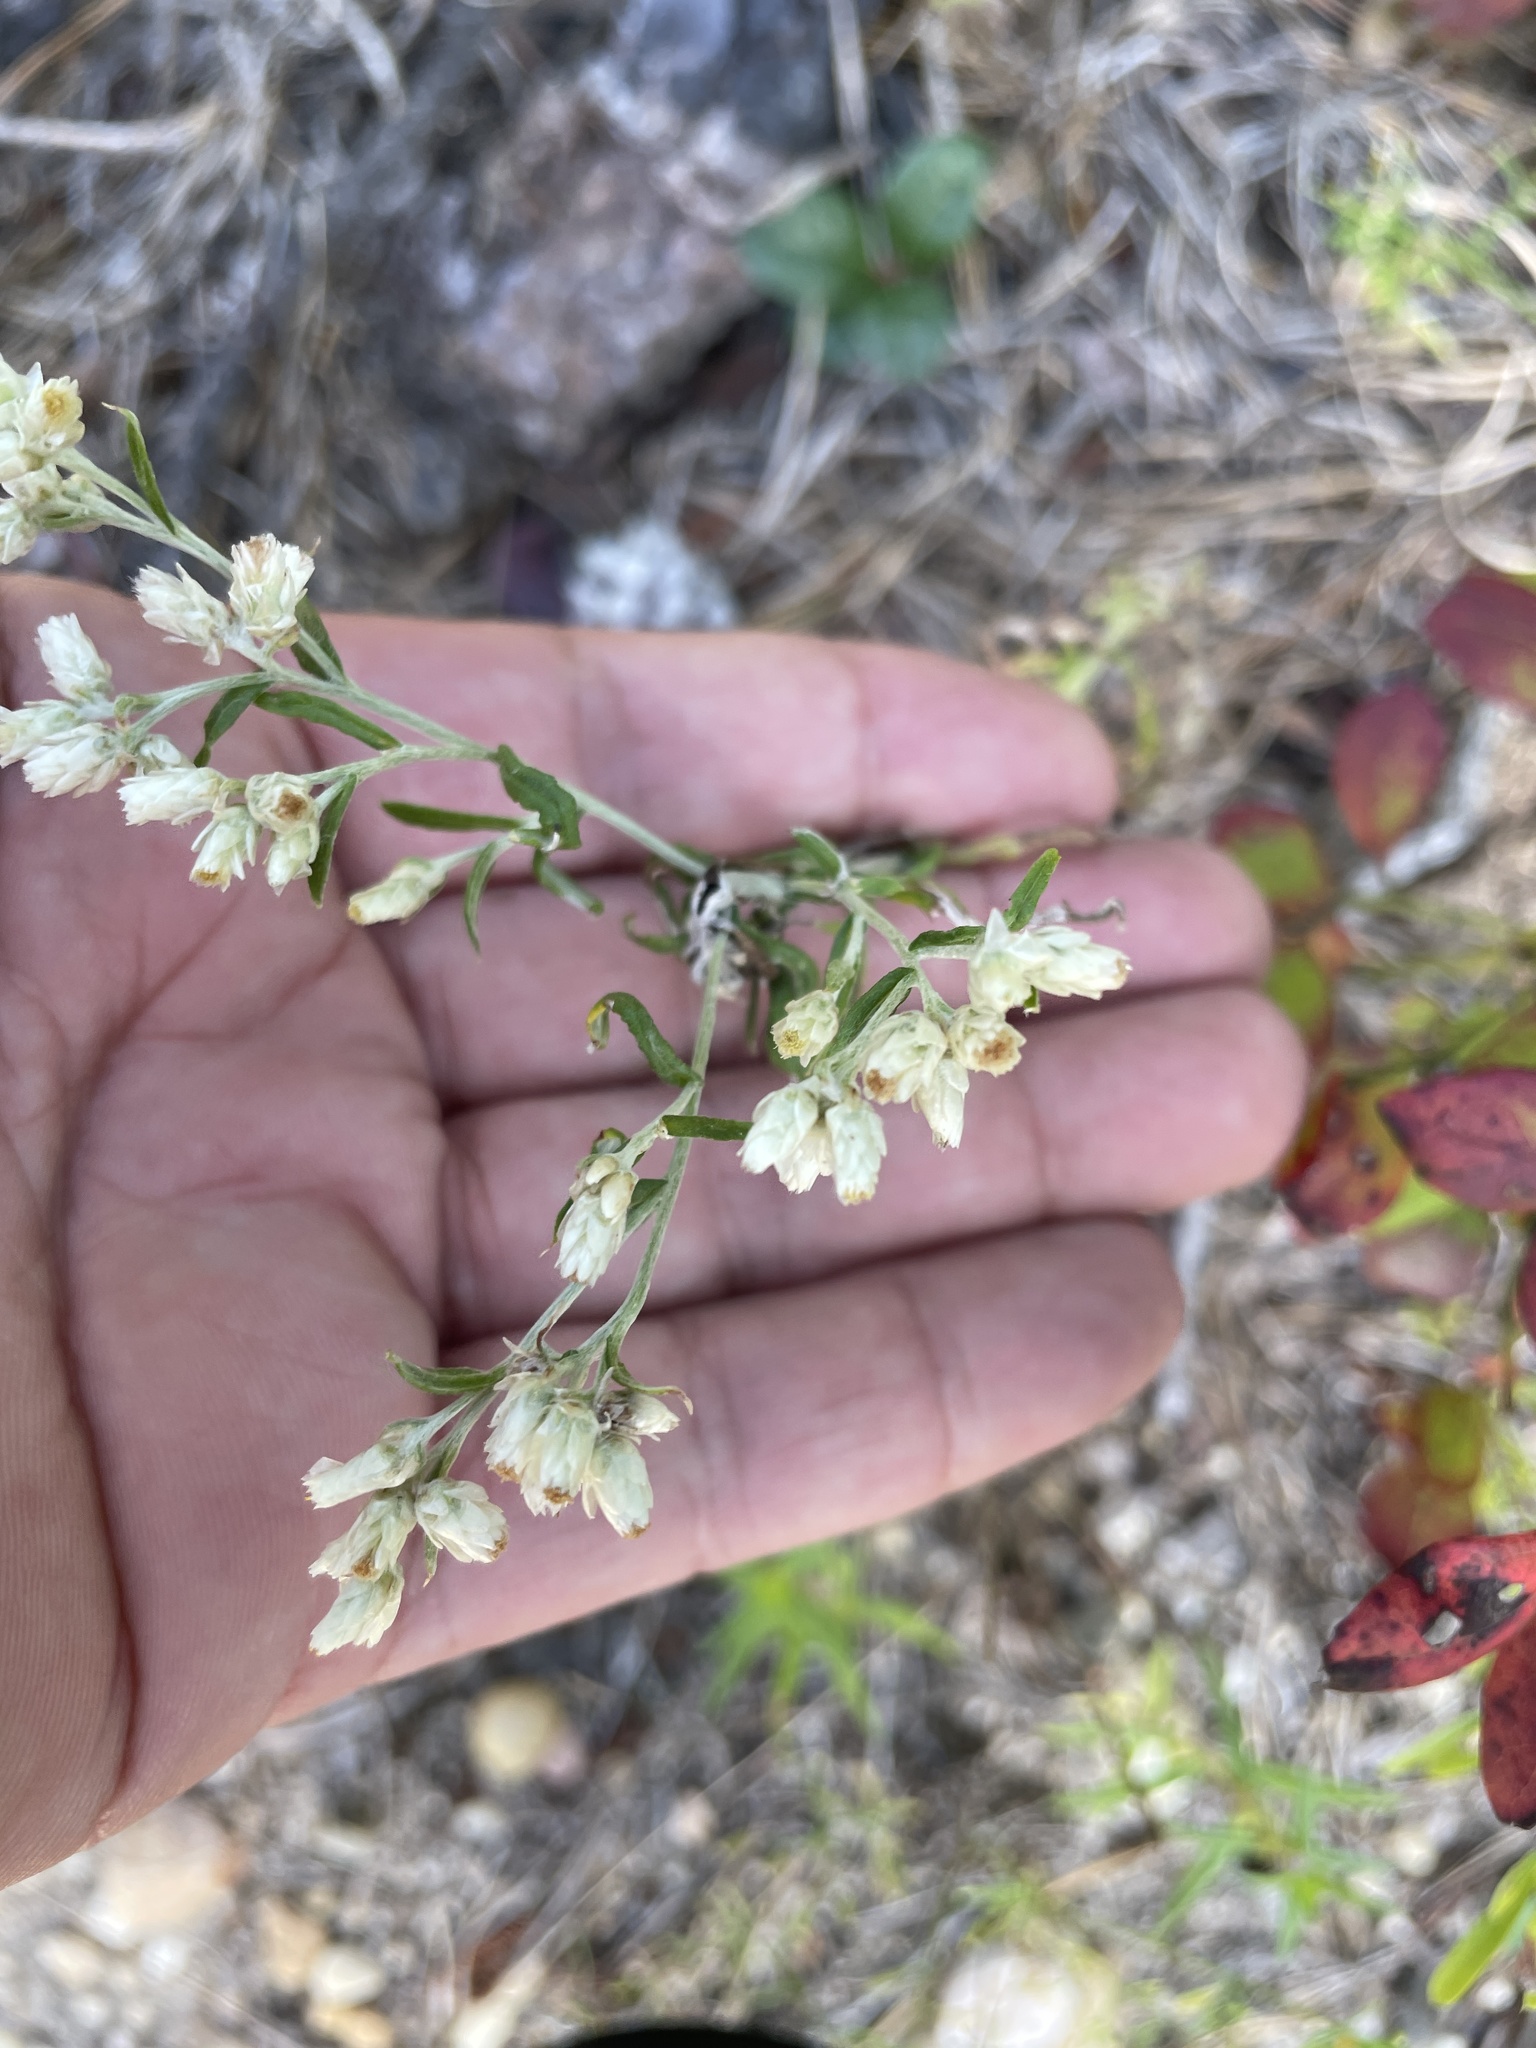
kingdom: Plantae
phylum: Tracheophyta
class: Magnoliopsida
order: Asterales
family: Asteraceae
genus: Pseudognaphalium
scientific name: Pseudognaphalium obtusifolium
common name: Eastern rabbit-tobacco
